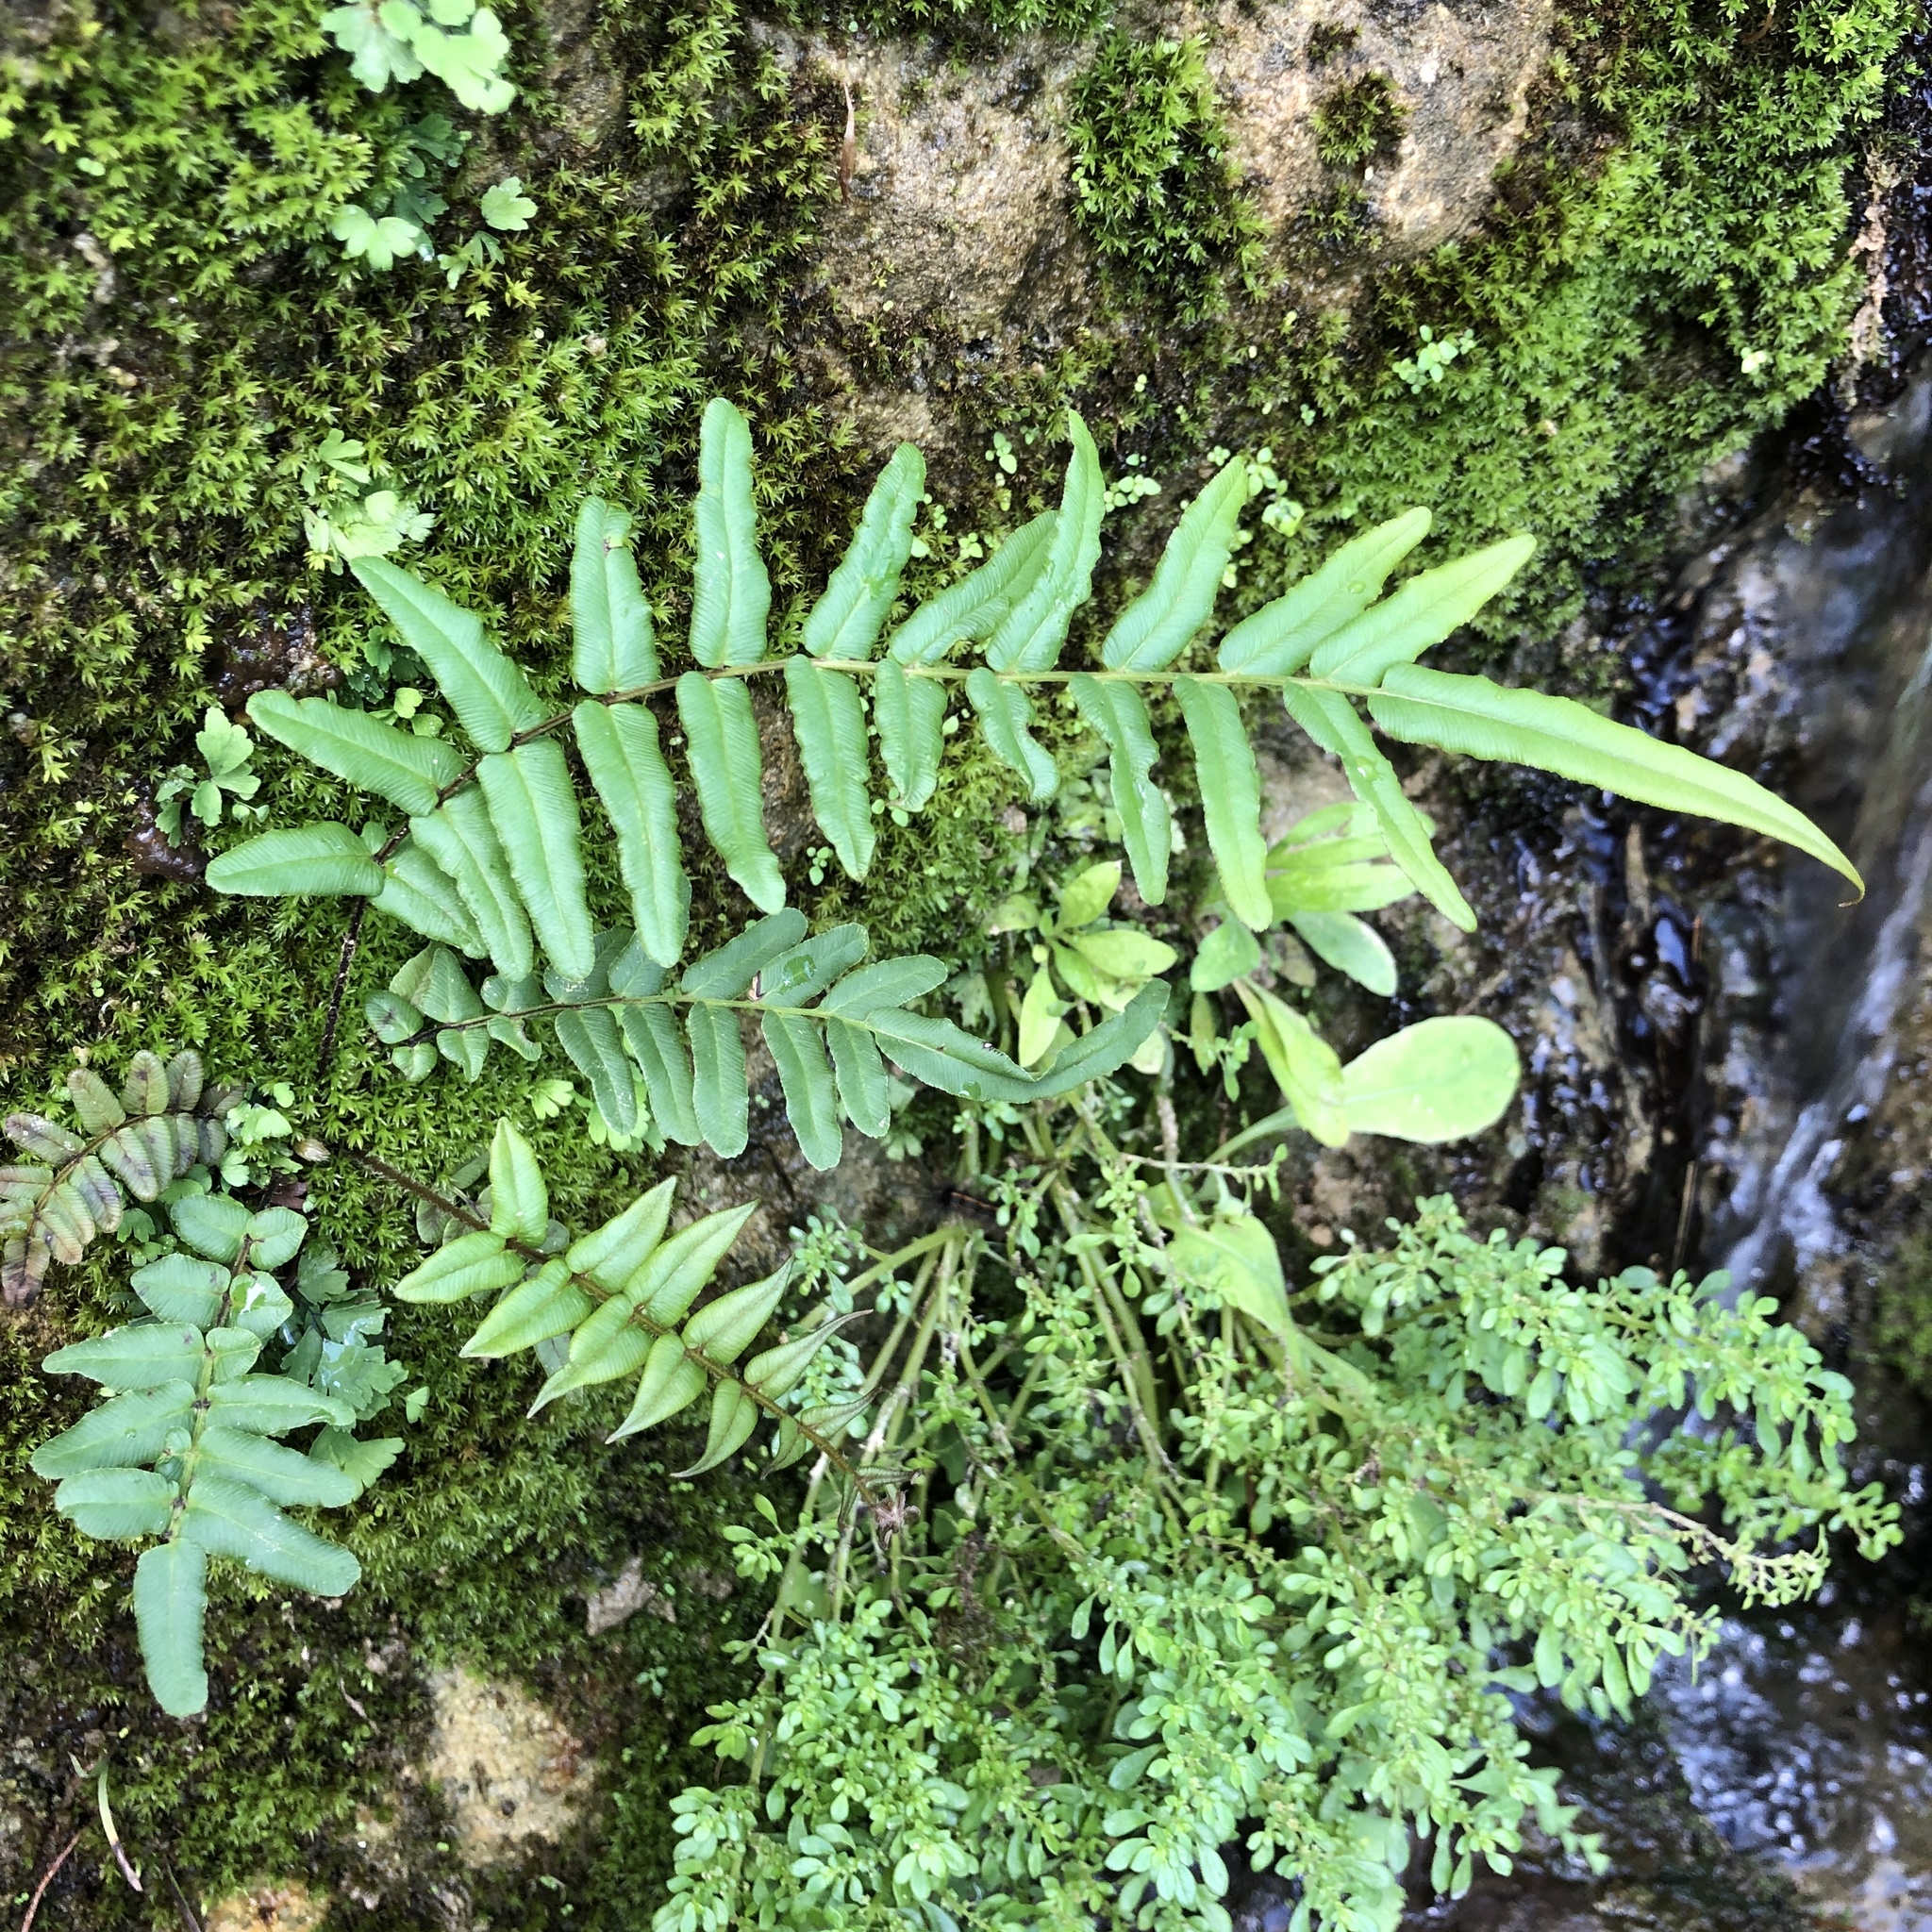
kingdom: Plantae
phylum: Tracheophyta
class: Polypodiopsida
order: Polypodiales
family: Pteridaceae
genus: Pteris
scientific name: Pteris vittata
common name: Ladder brake
